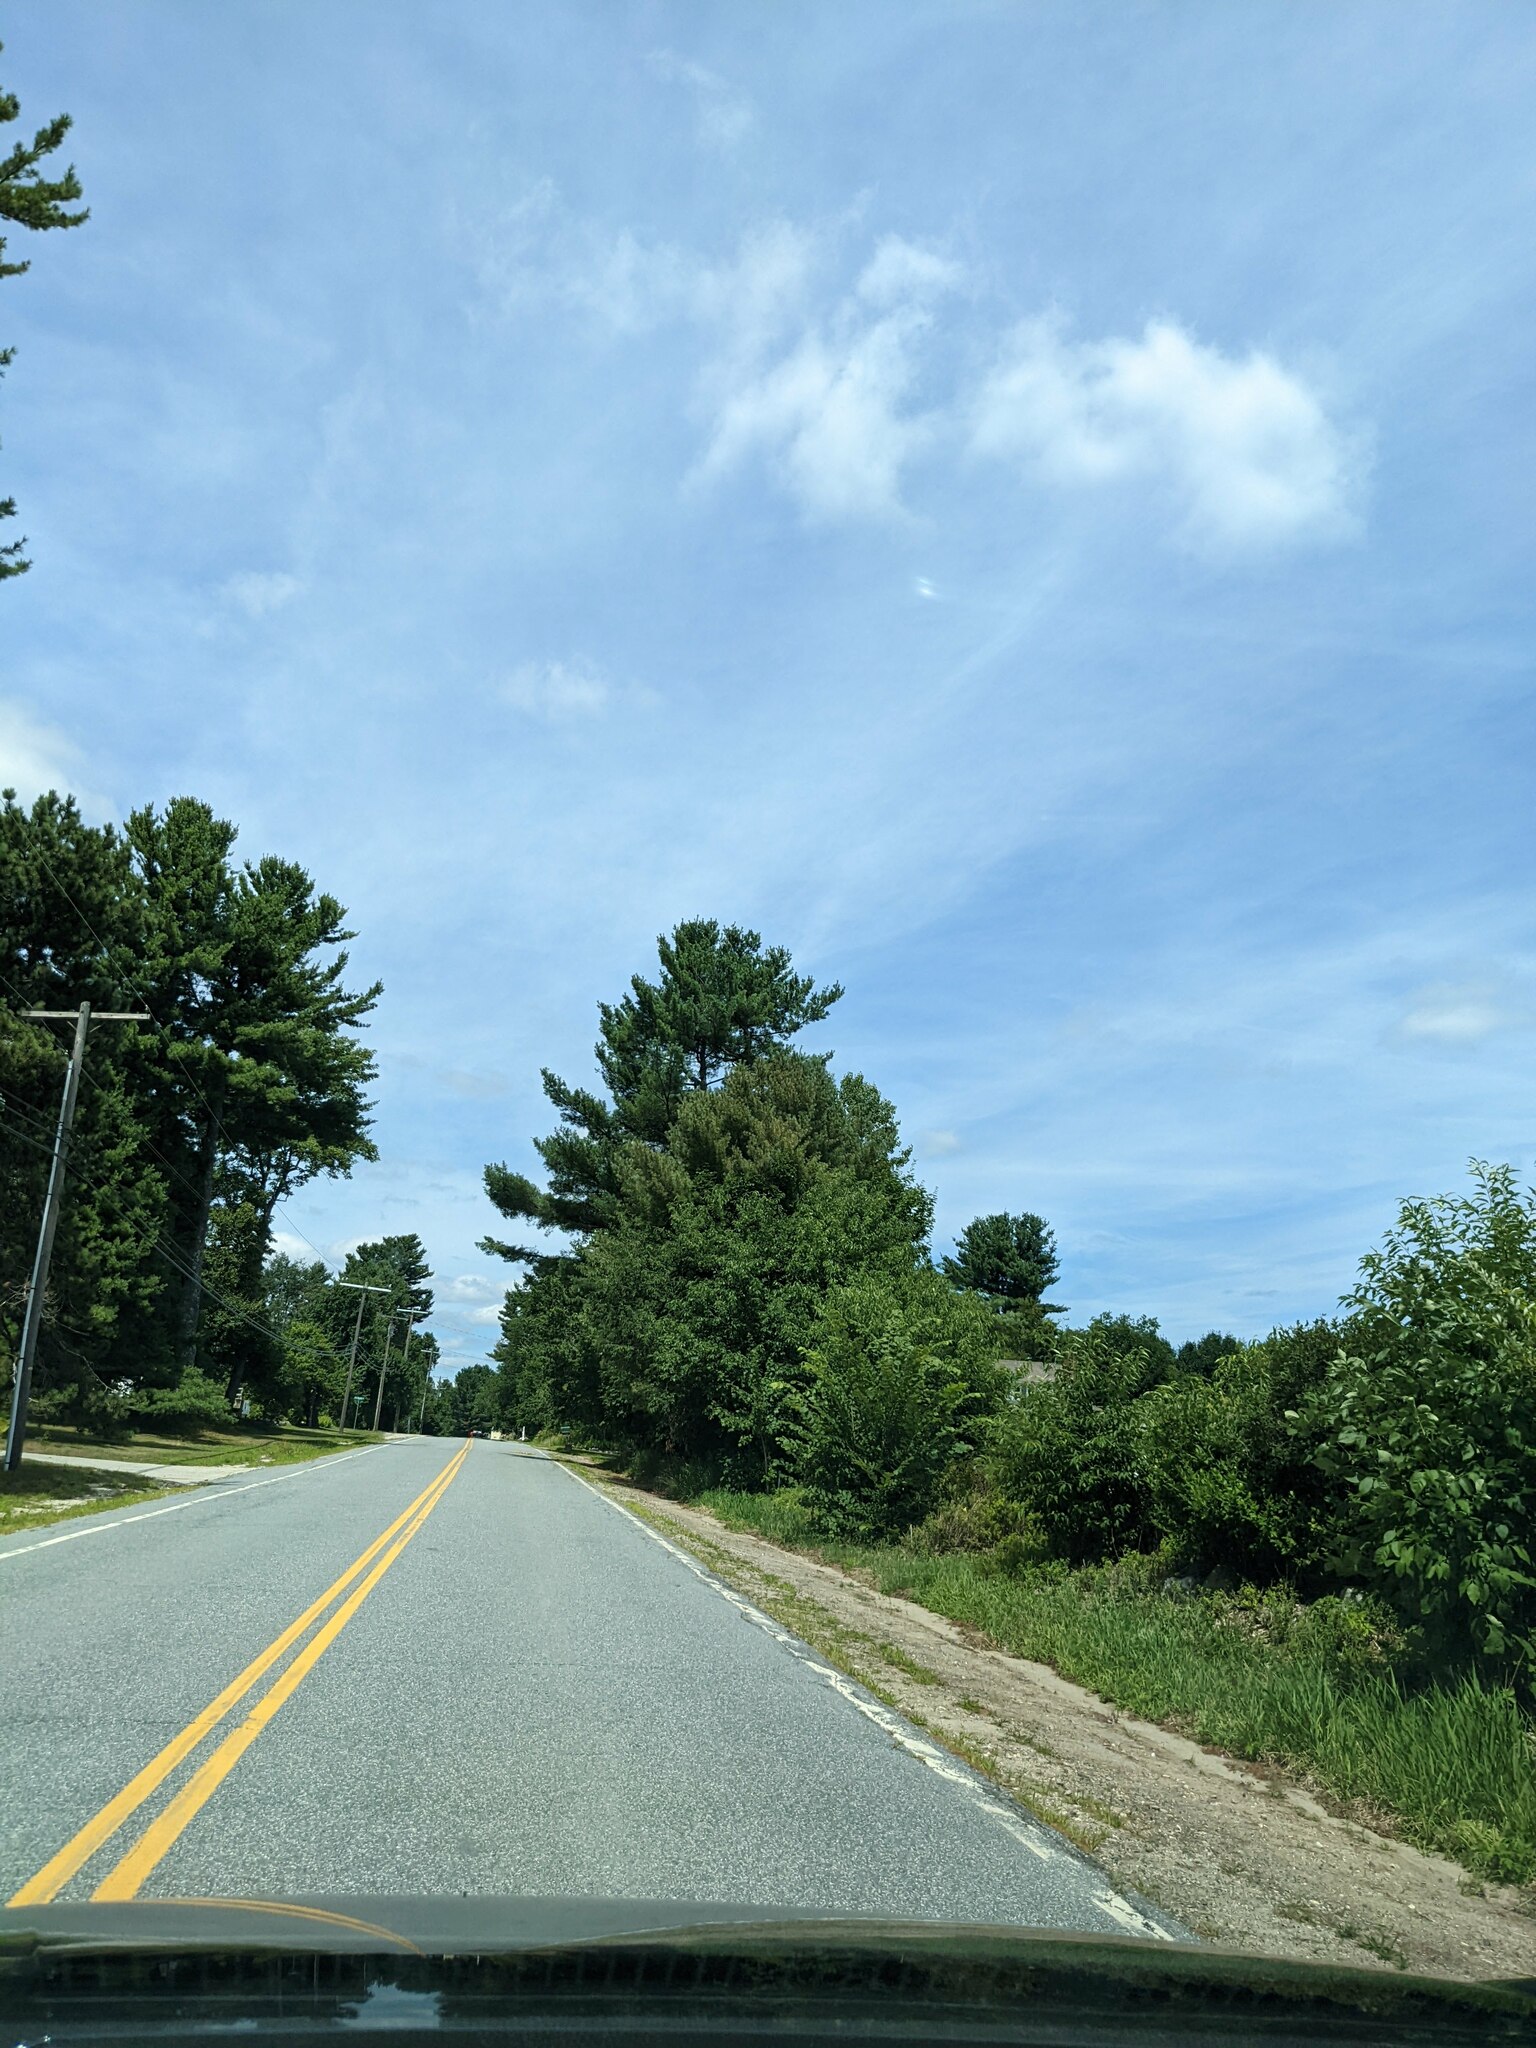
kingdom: Plantae
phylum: Tracheophyta
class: Pinopsida
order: Pinales
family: Pinaceae
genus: Pinus
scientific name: Pinus strobus
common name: Weymouth pine
